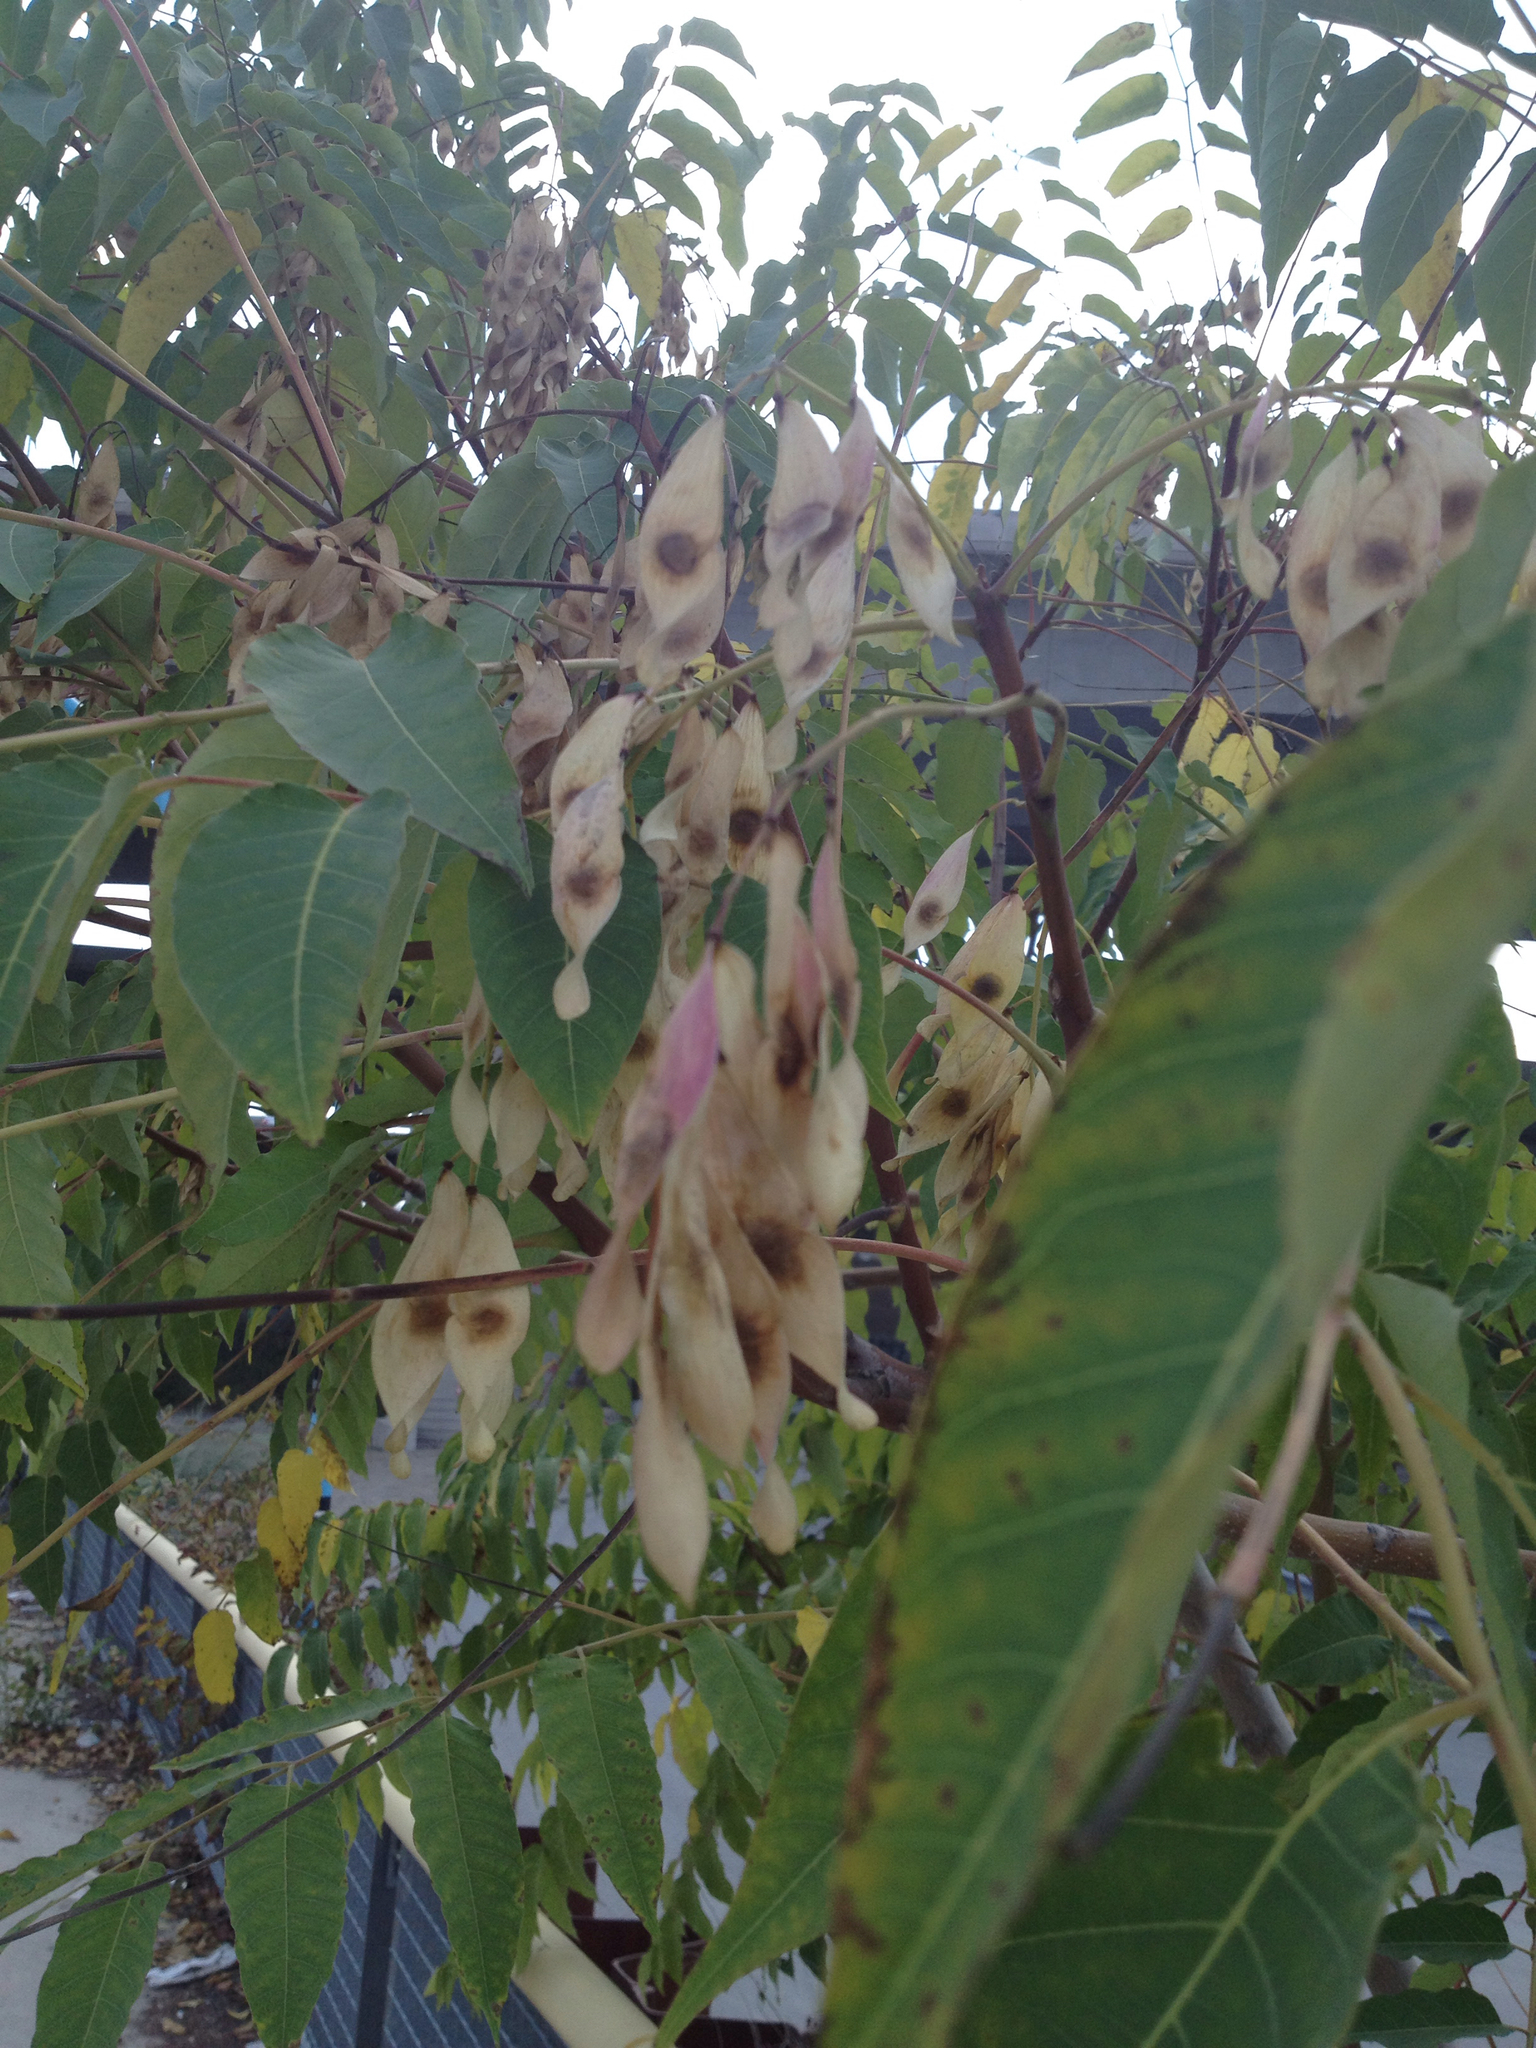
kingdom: Plantae
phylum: Tracheophyta
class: Magnoliopsida
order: Sapindales
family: Simaroubaceae
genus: Ailanthus
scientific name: Ailanthus altissima
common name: Tree-of-heaven
